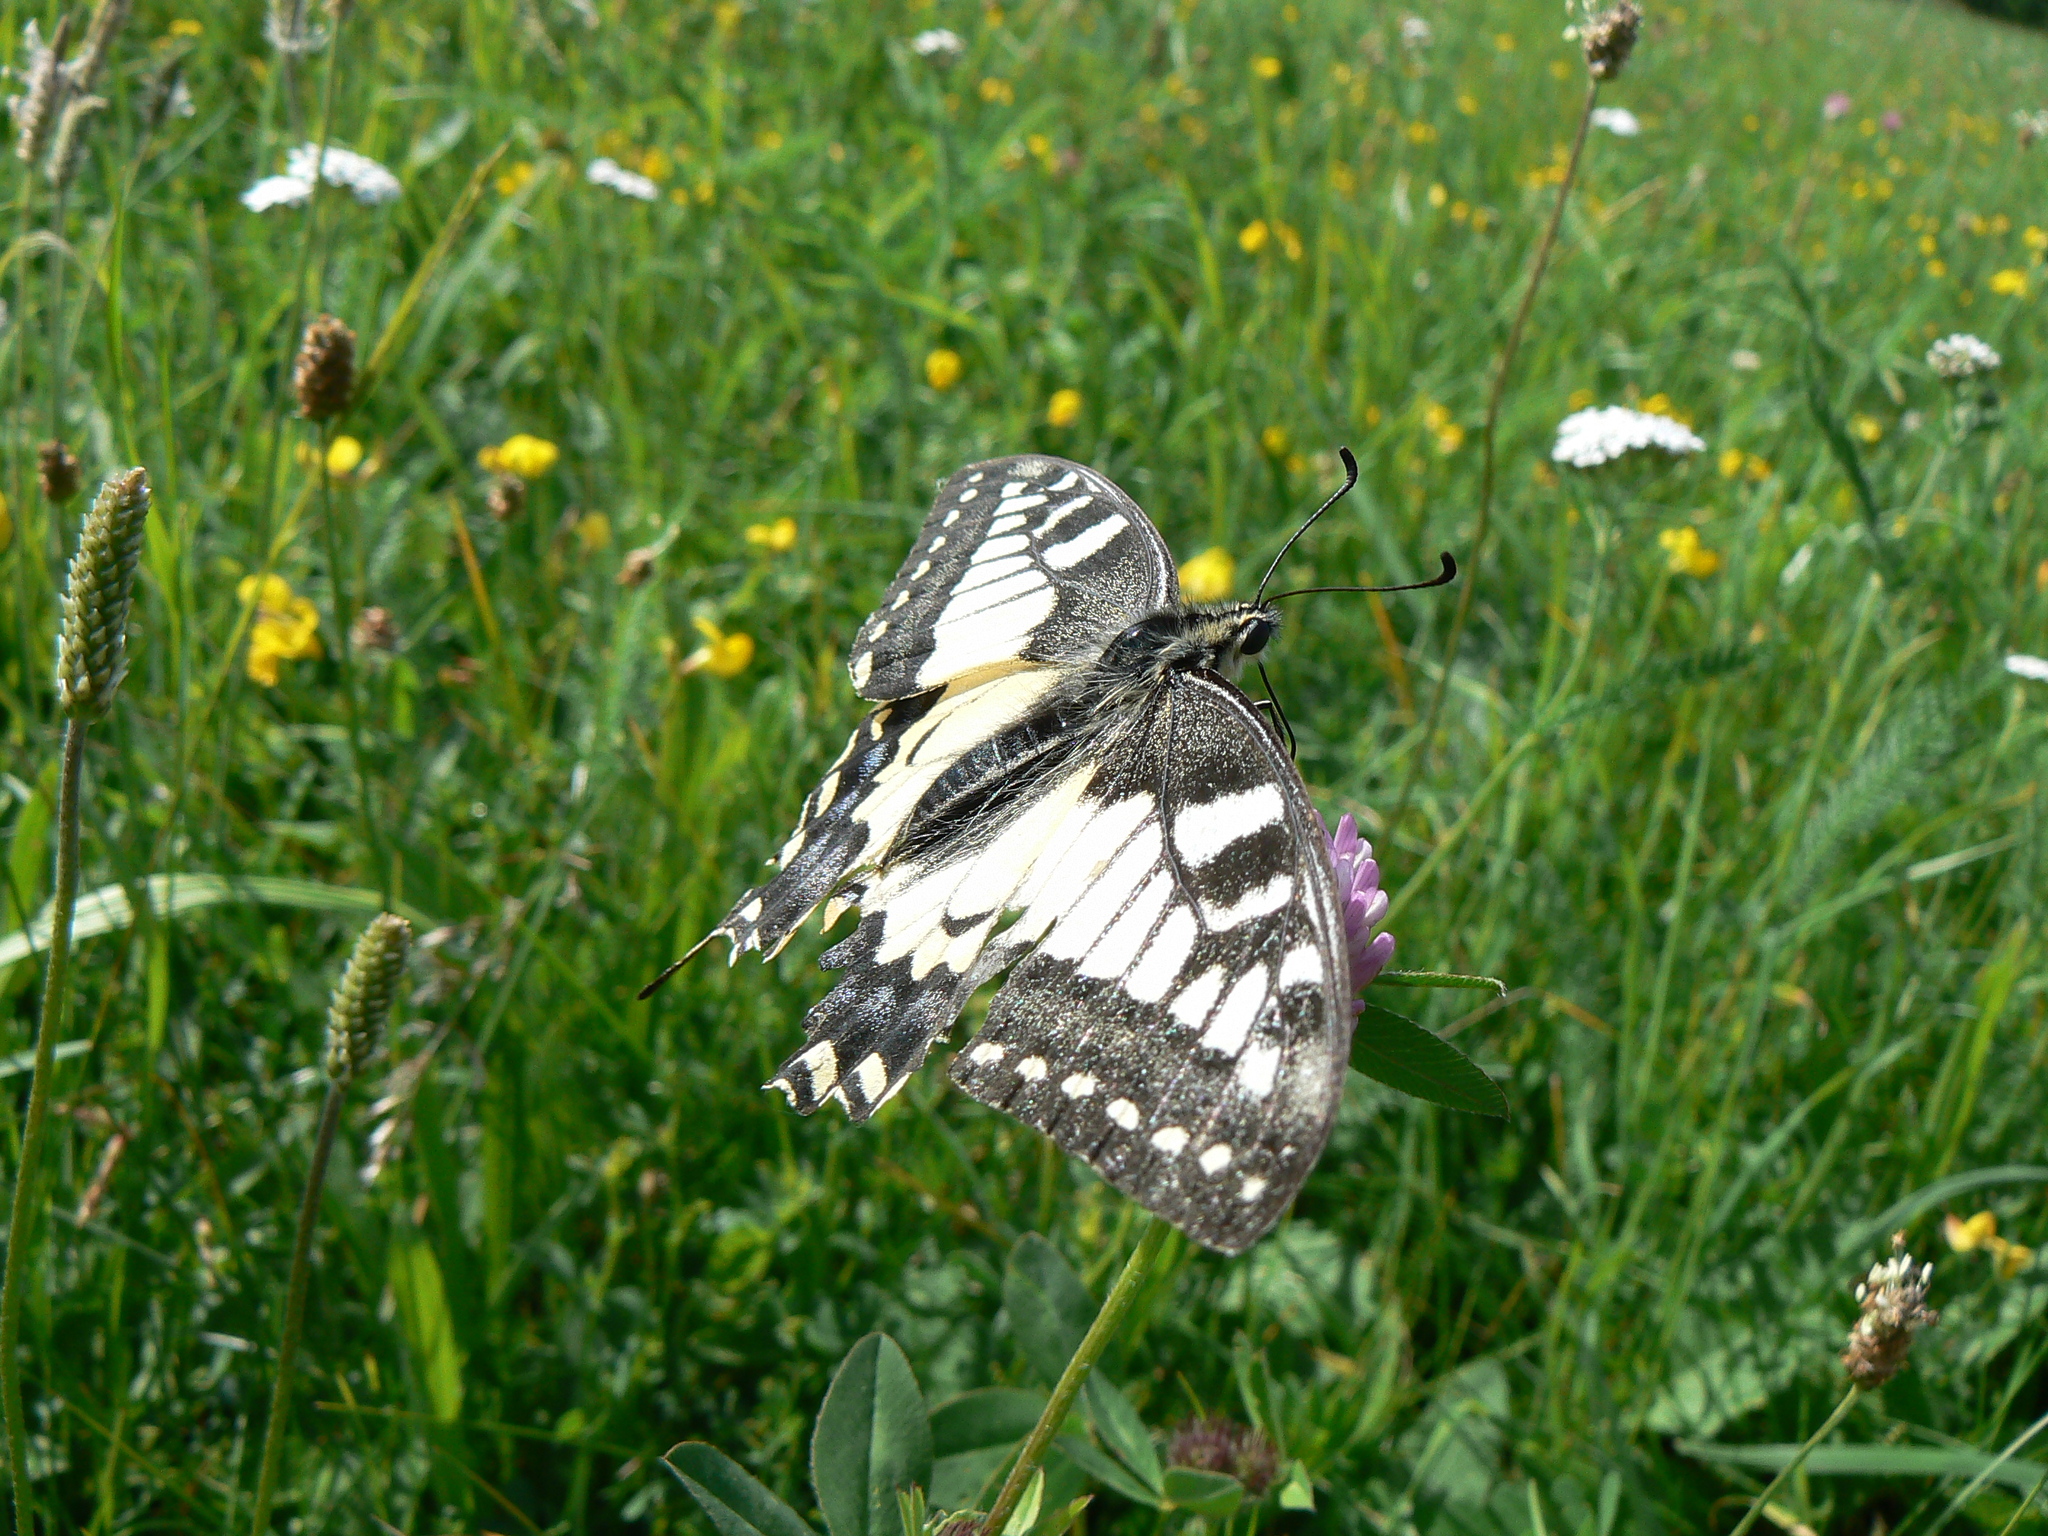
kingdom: Animalia
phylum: Arthropoda
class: Insecta
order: Lepidoptera
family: Papilionidae
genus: Papilio
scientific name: Papilio machaon
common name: Swallowtail
